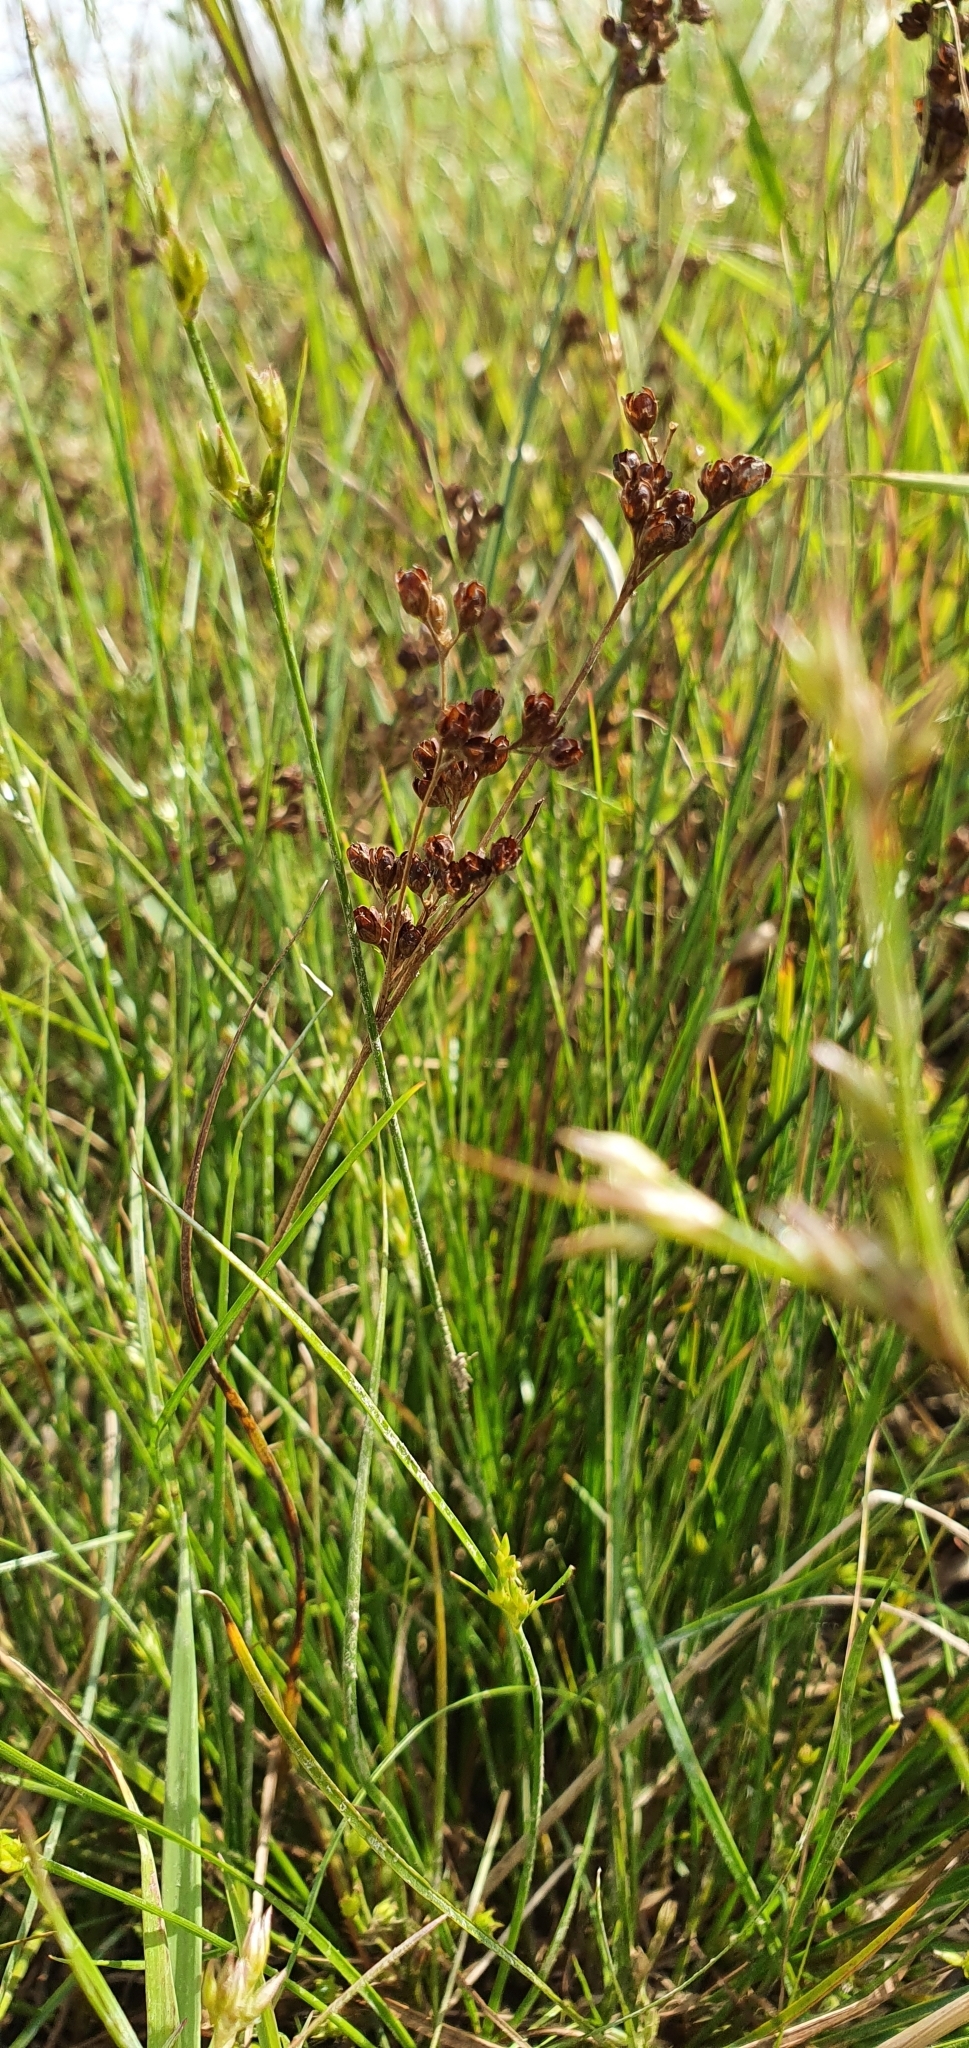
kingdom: Plantae
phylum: Tracheophyta
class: Liliopsida
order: Poales
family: Juncaceae
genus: Juncus
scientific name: Juncus compressus
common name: Round-fruited rush
